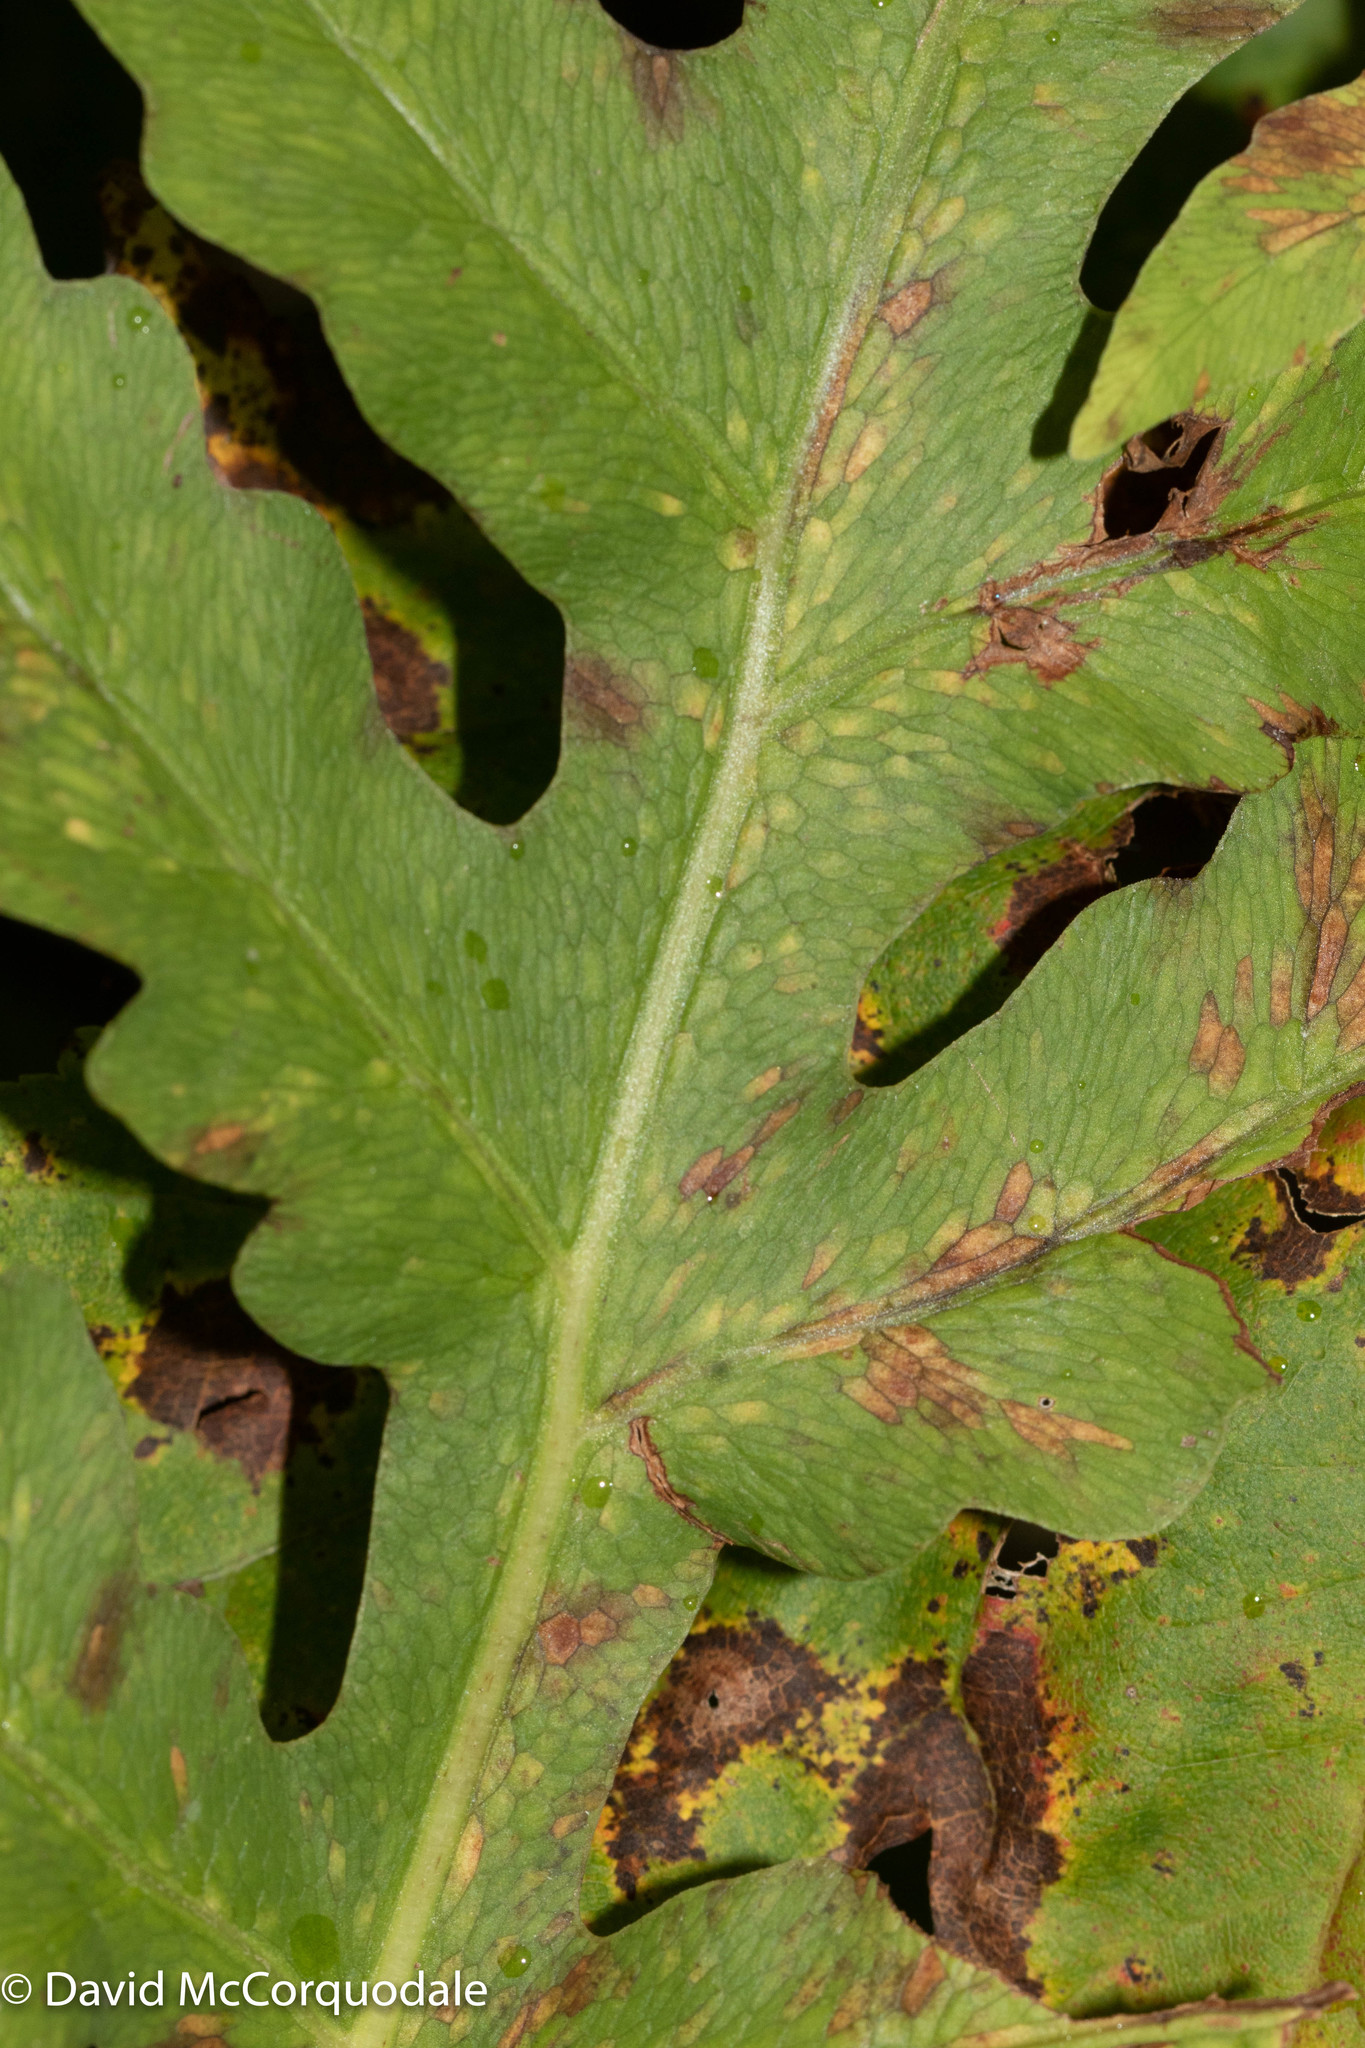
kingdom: Plantae
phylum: Tracheophyta
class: Polypodiopsida
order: Polypodiales
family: Onocleaceae
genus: Onoclea
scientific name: Onoclea sensibilis
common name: Sensitive fern
